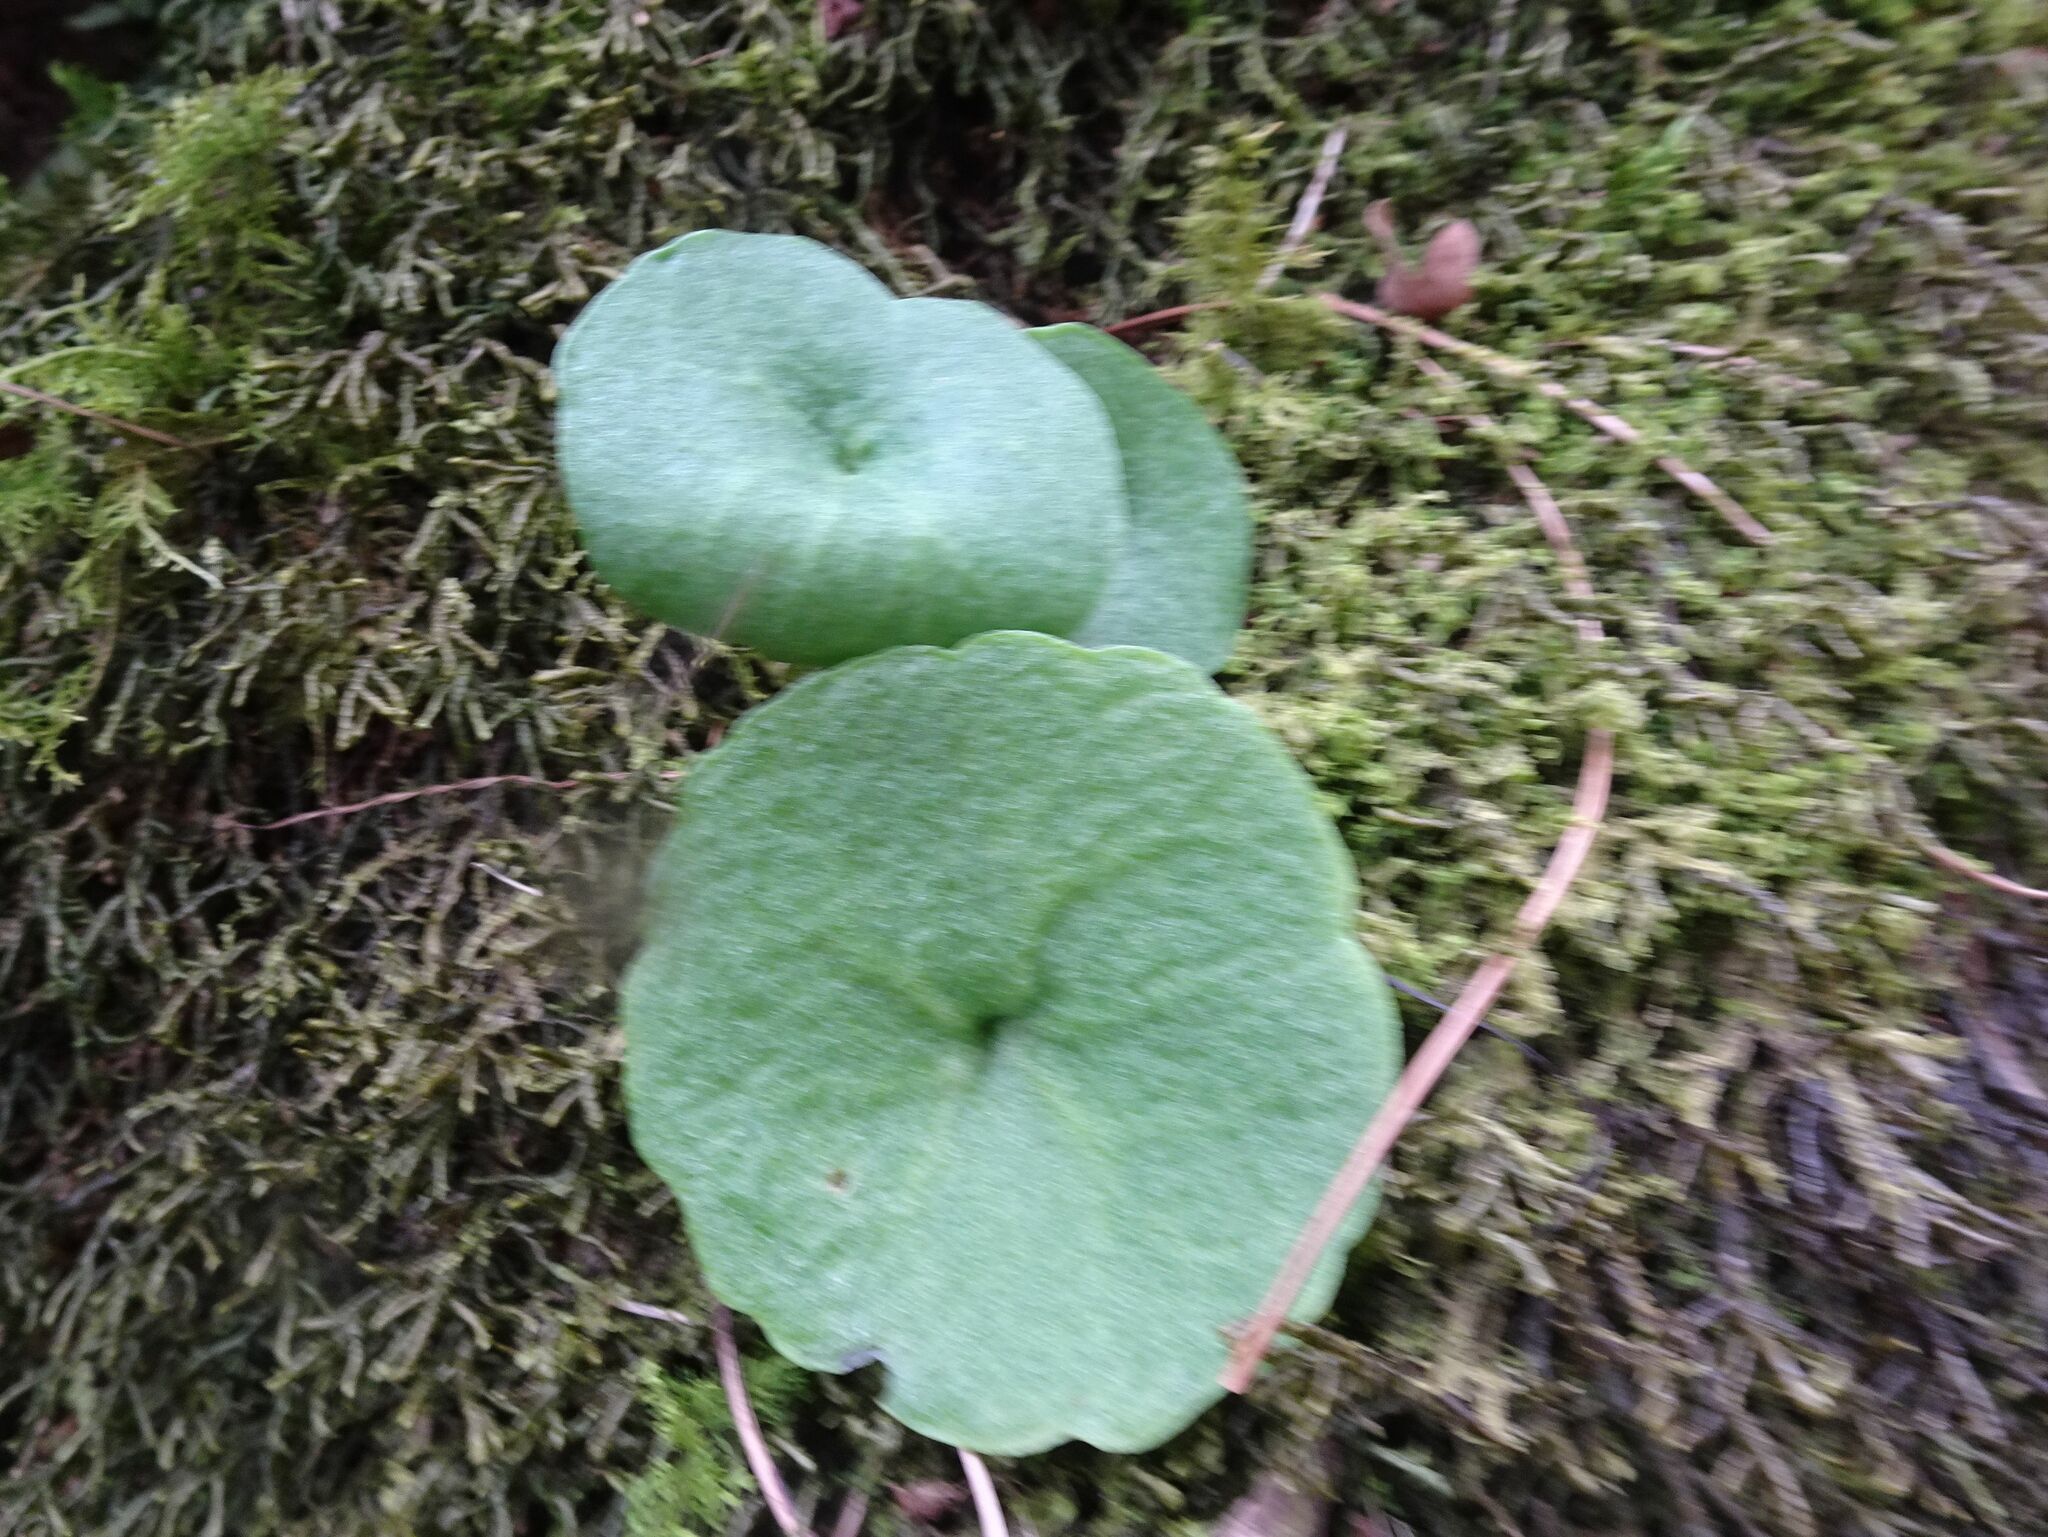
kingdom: Plantae
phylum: Tracheophyta
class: Magnoliopsida
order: Saxifragales
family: Crassulaceae
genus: Umbilicus
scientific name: Umbilicus rupestris
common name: Navelwort
